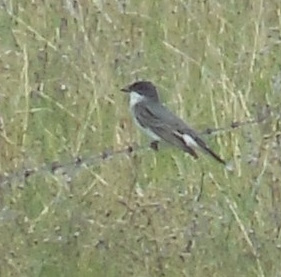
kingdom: Animalia
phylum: Chordata
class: Aves
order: Passeriformes
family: Tyrannidae
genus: Tyrannus
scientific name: Tyrannus tyrannus
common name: Eastern kingbird
